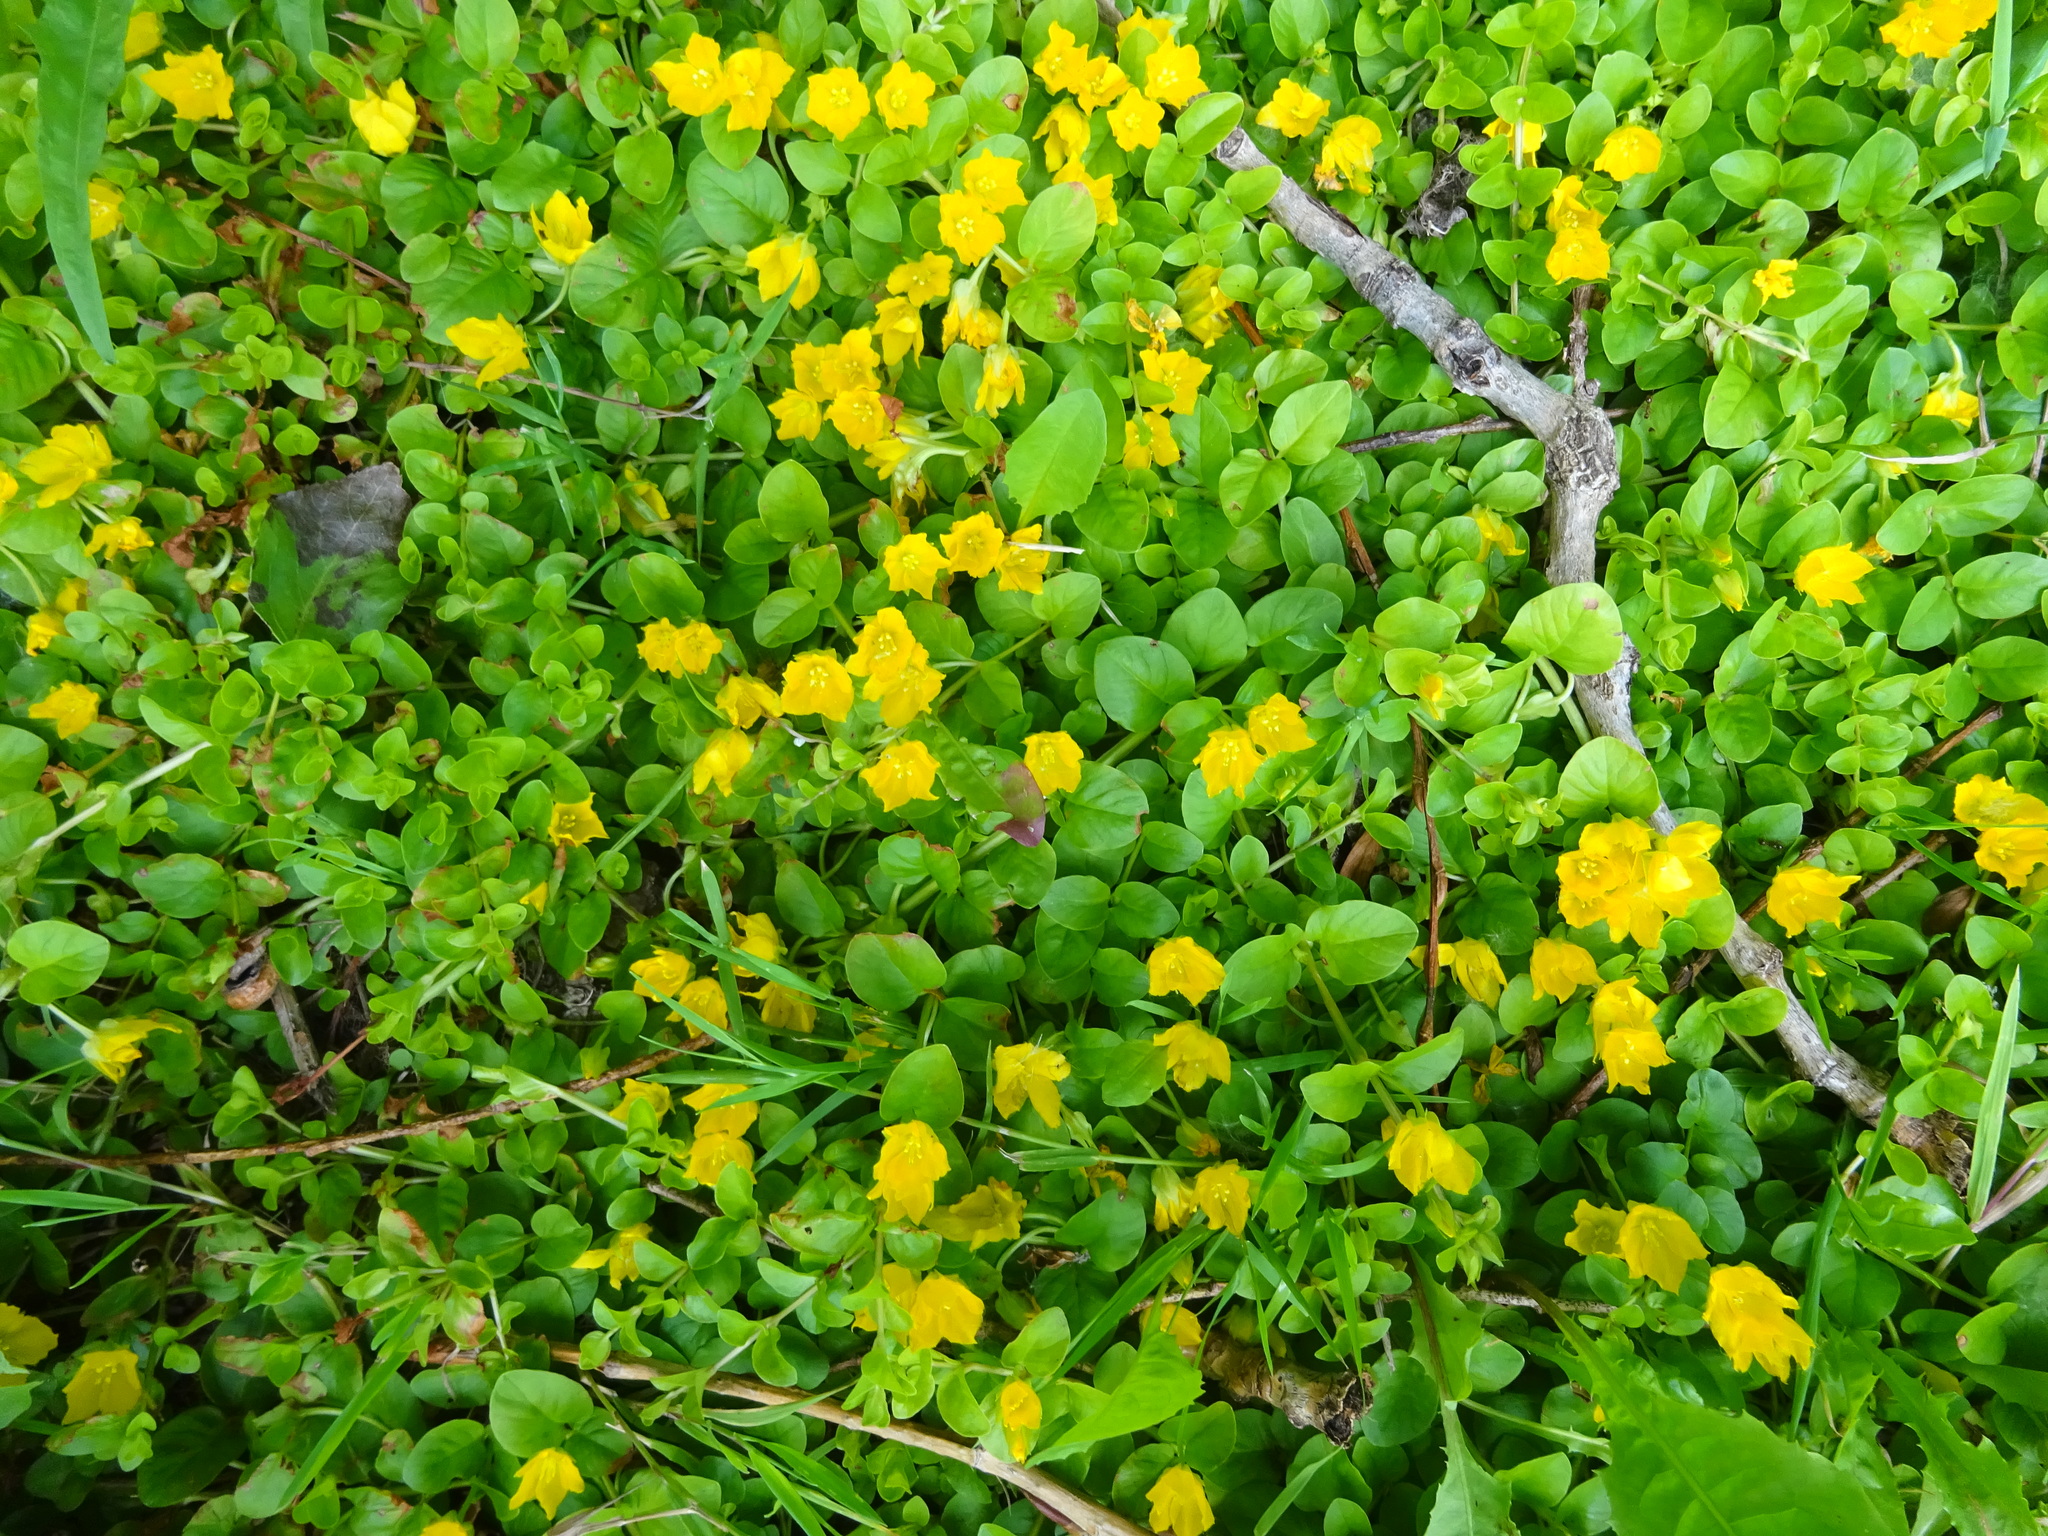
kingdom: Plantae
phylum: Tracheophyta
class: Magnoliopsida
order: Ericales
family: Primulaceae
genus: Lysimachia
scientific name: Lysimachia nummularia
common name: Moneywort
